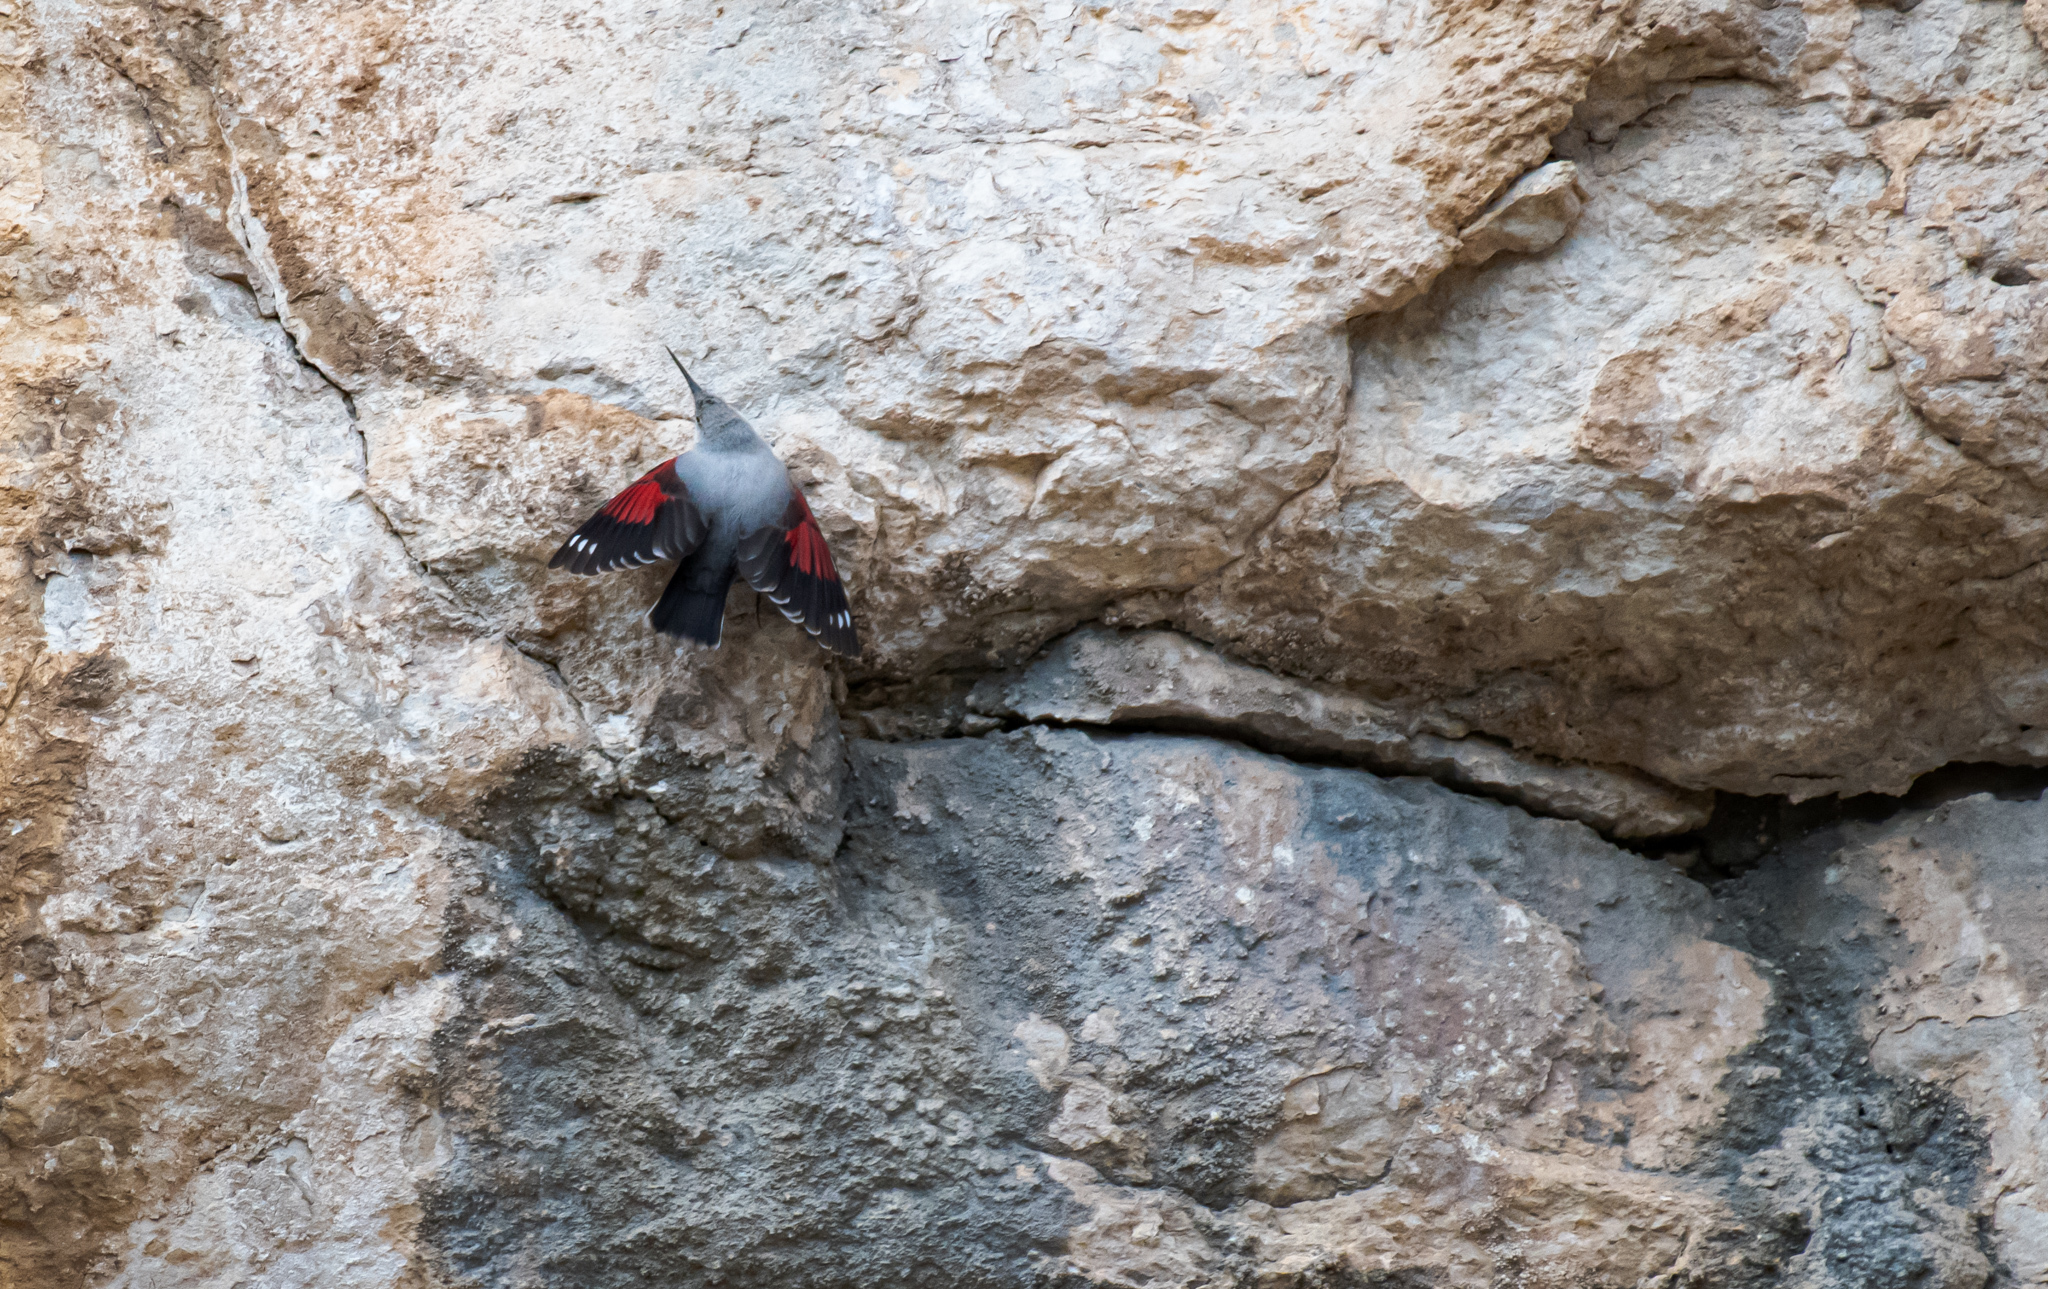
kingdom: Animalia
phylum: Chordata
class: Aves
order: Passeriformes
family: Tichodromidae
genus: Tichodroma
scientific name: Tichodroma muraria
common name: Wallcreeper
